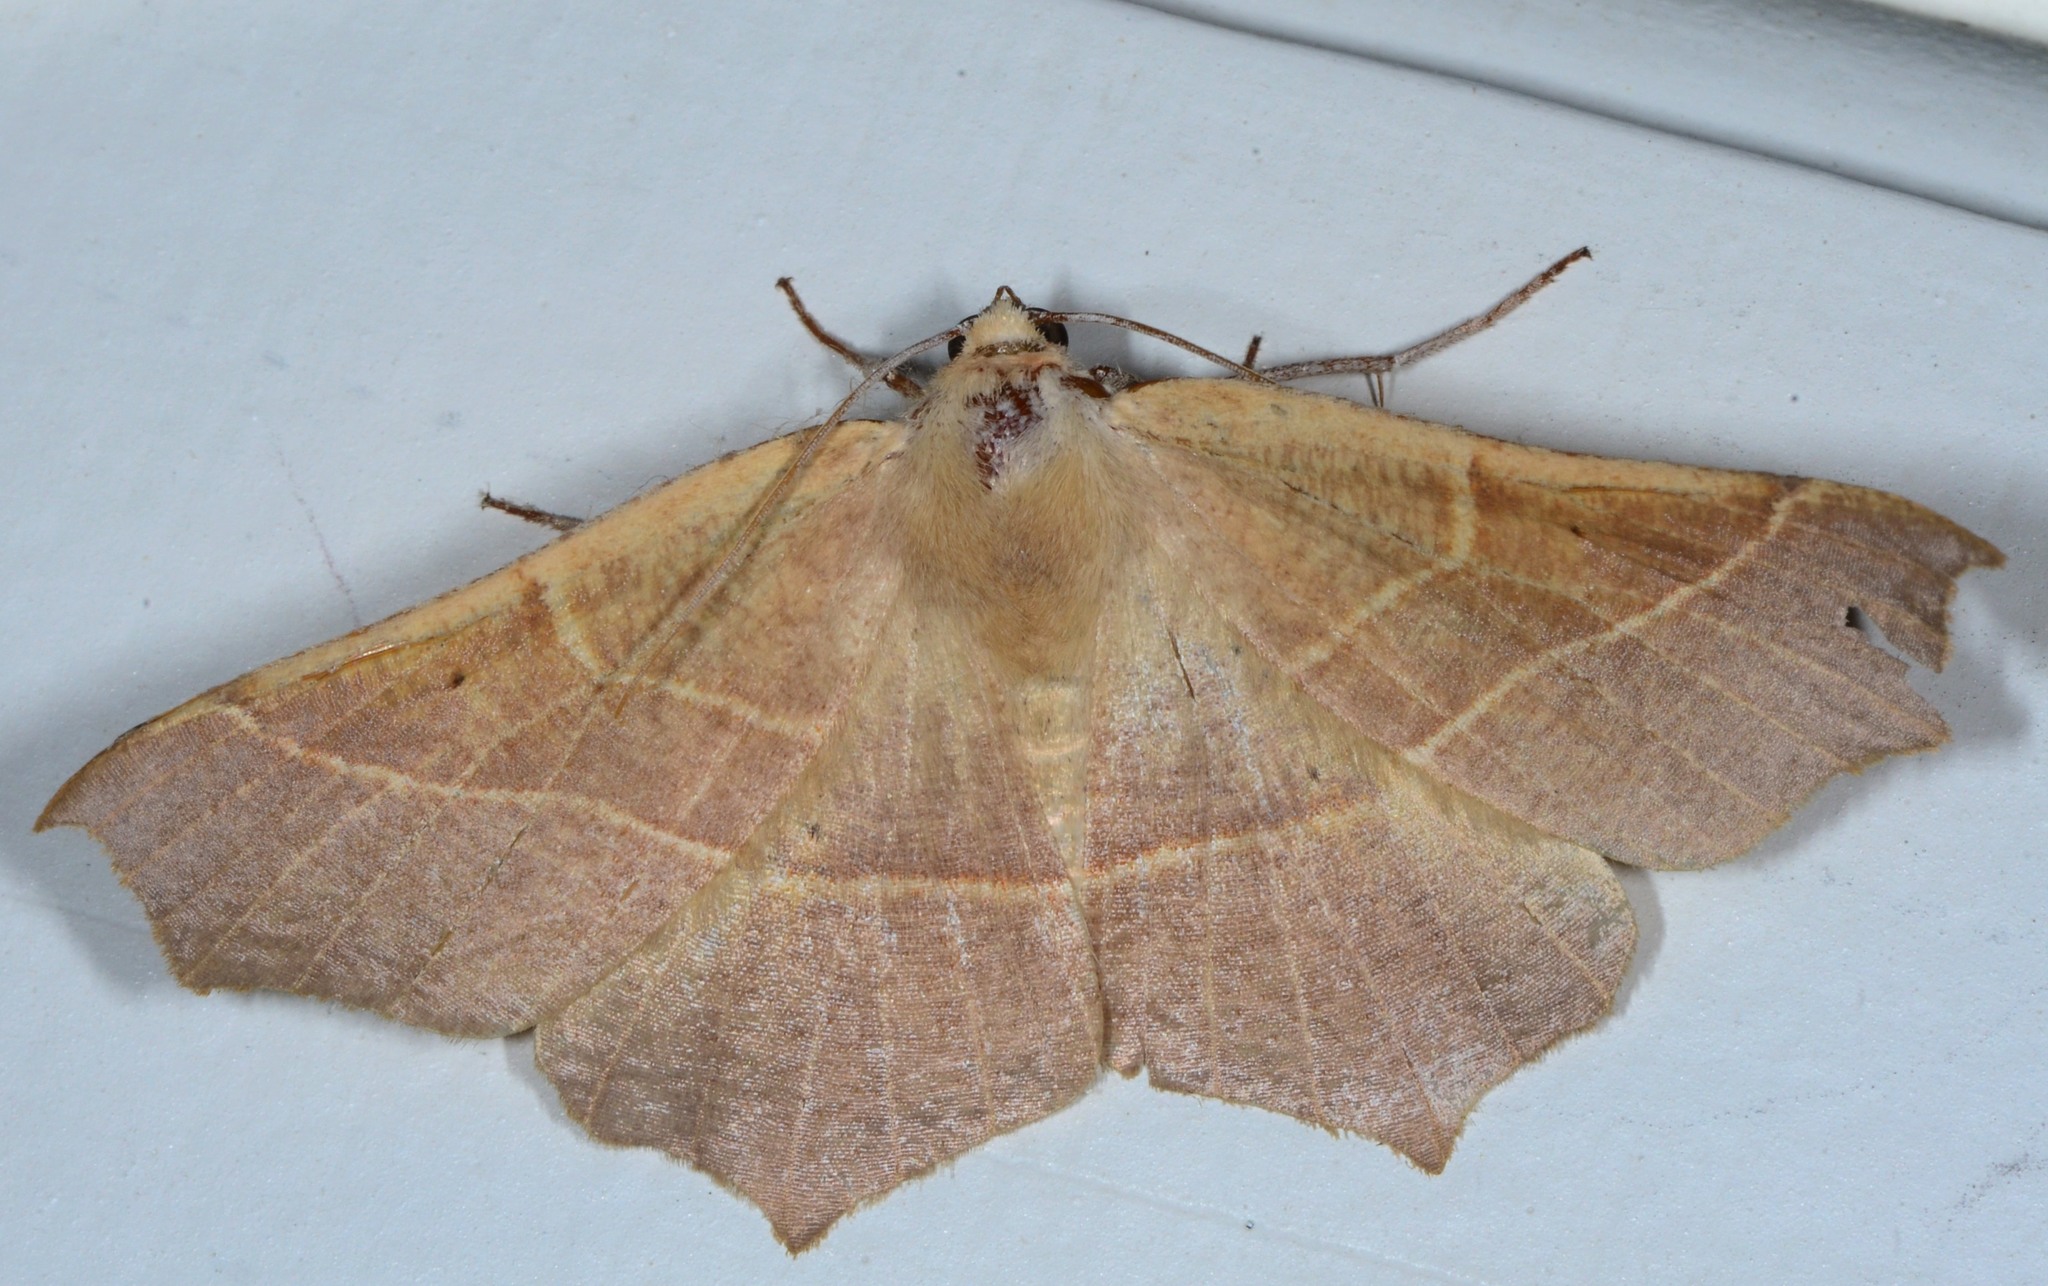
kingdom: Animalia
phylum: Arthropoda
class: Insecta
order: Lepidoptera
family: Geometridae
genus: Tetracis
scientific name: Tetracis cervinaria
